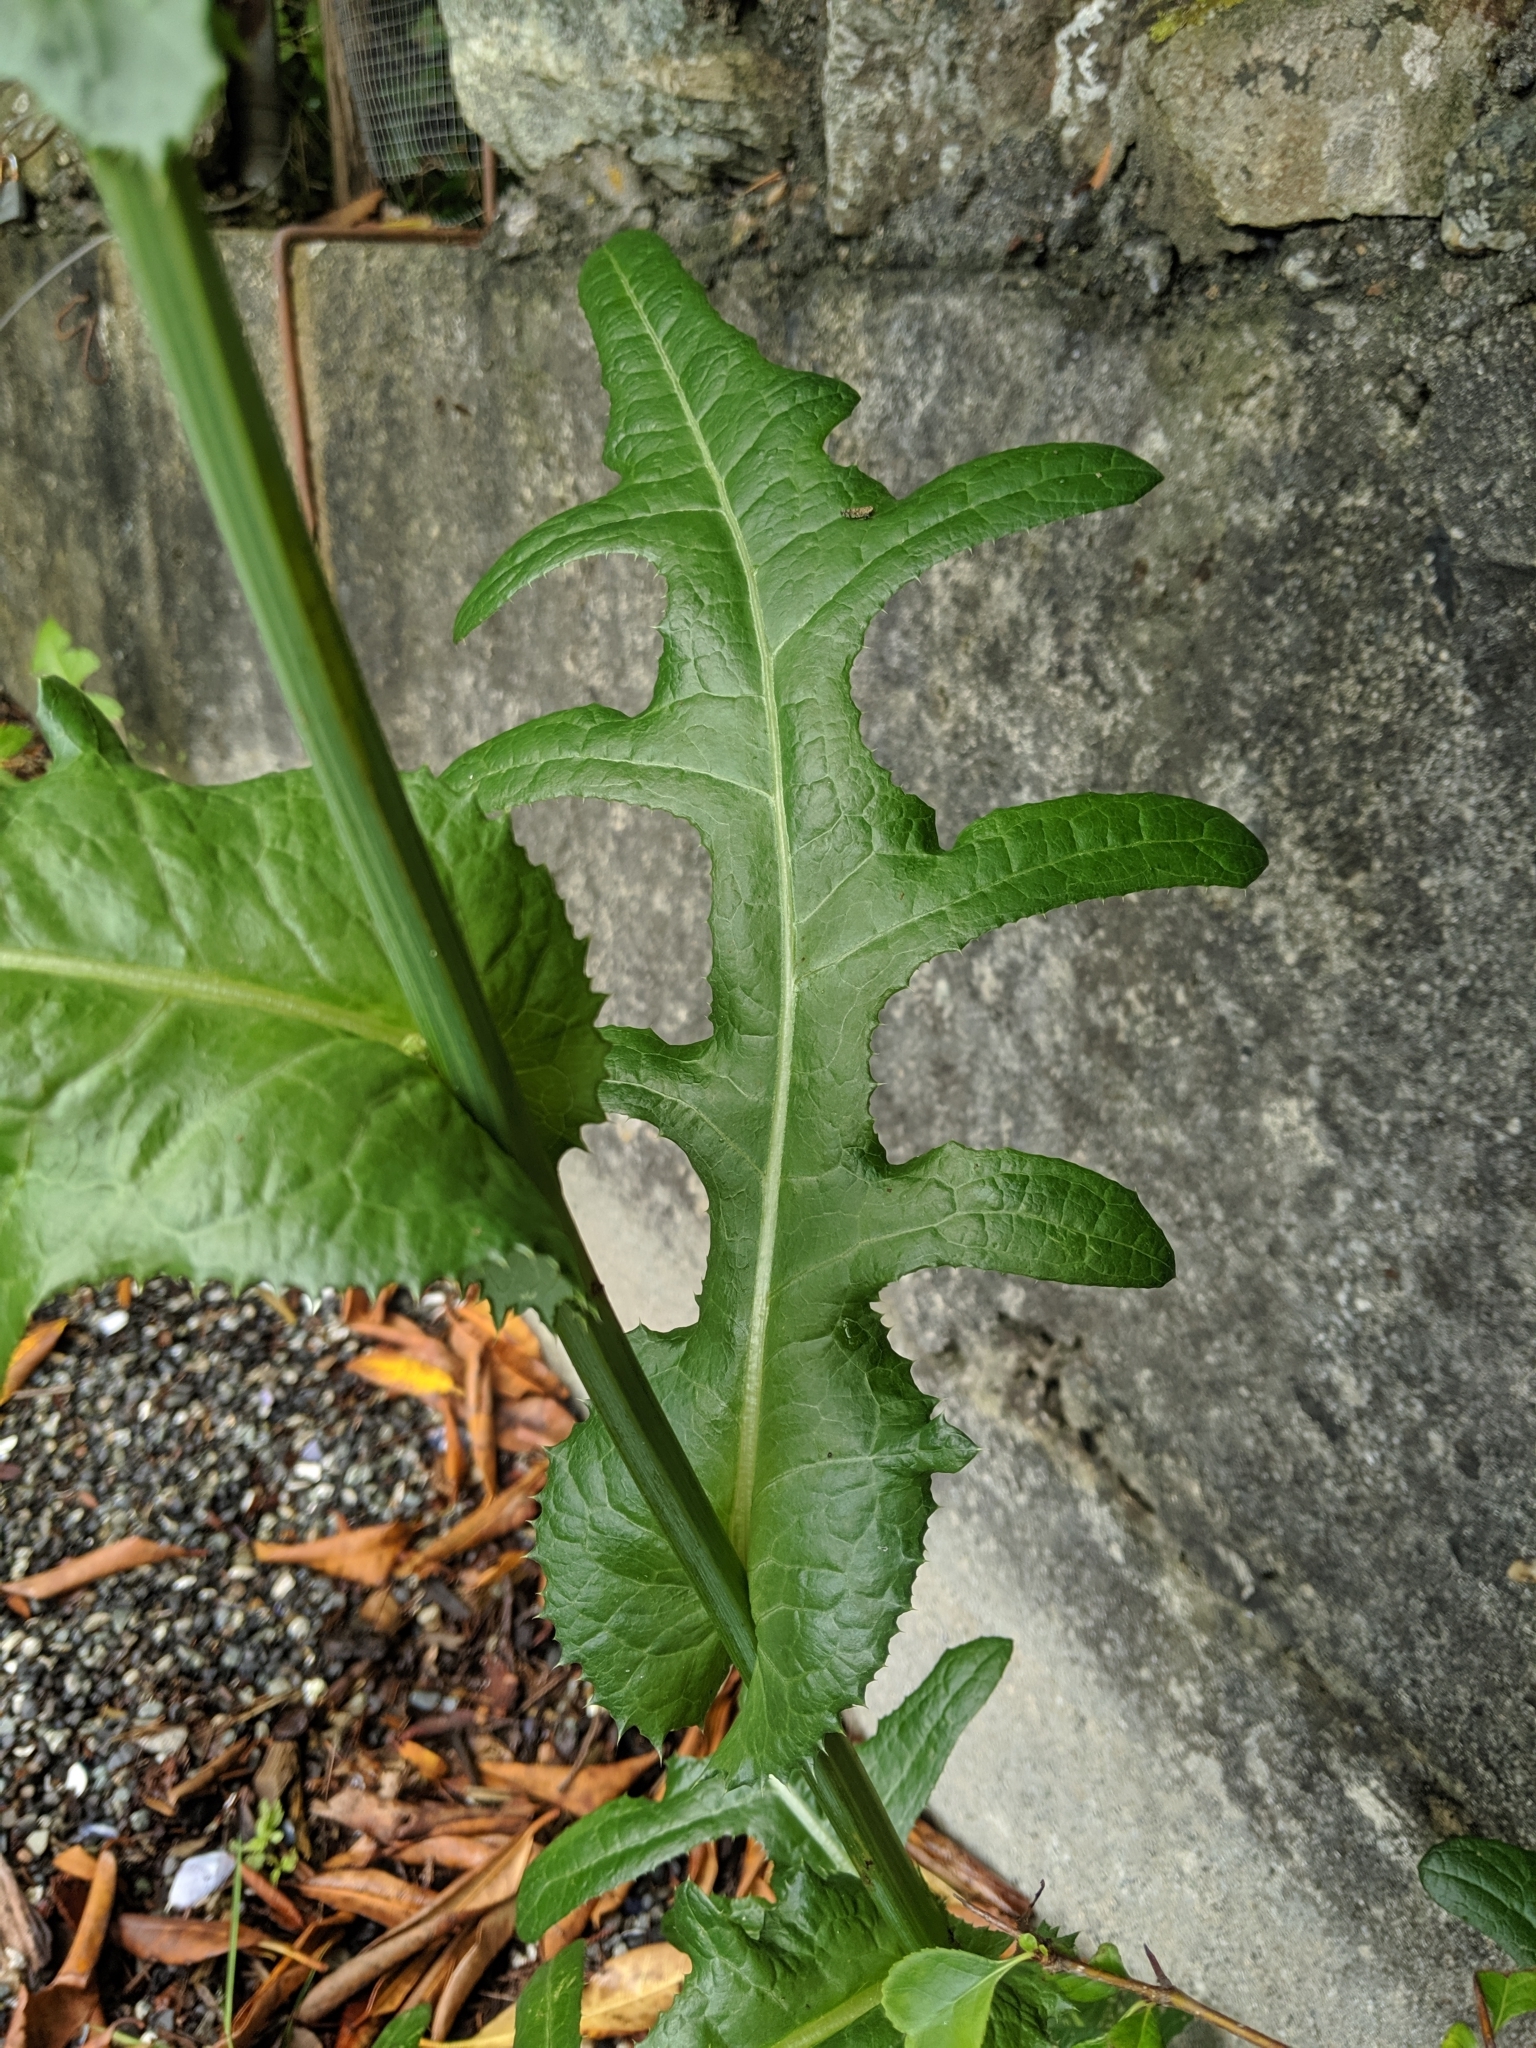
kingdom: Plantae
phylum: Tracheophyta
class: Magnoliopsida
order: Asterales
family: Asteraceae
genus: Sonchus
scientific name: Sonchus arvensis
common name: Perennial sow-thistle
